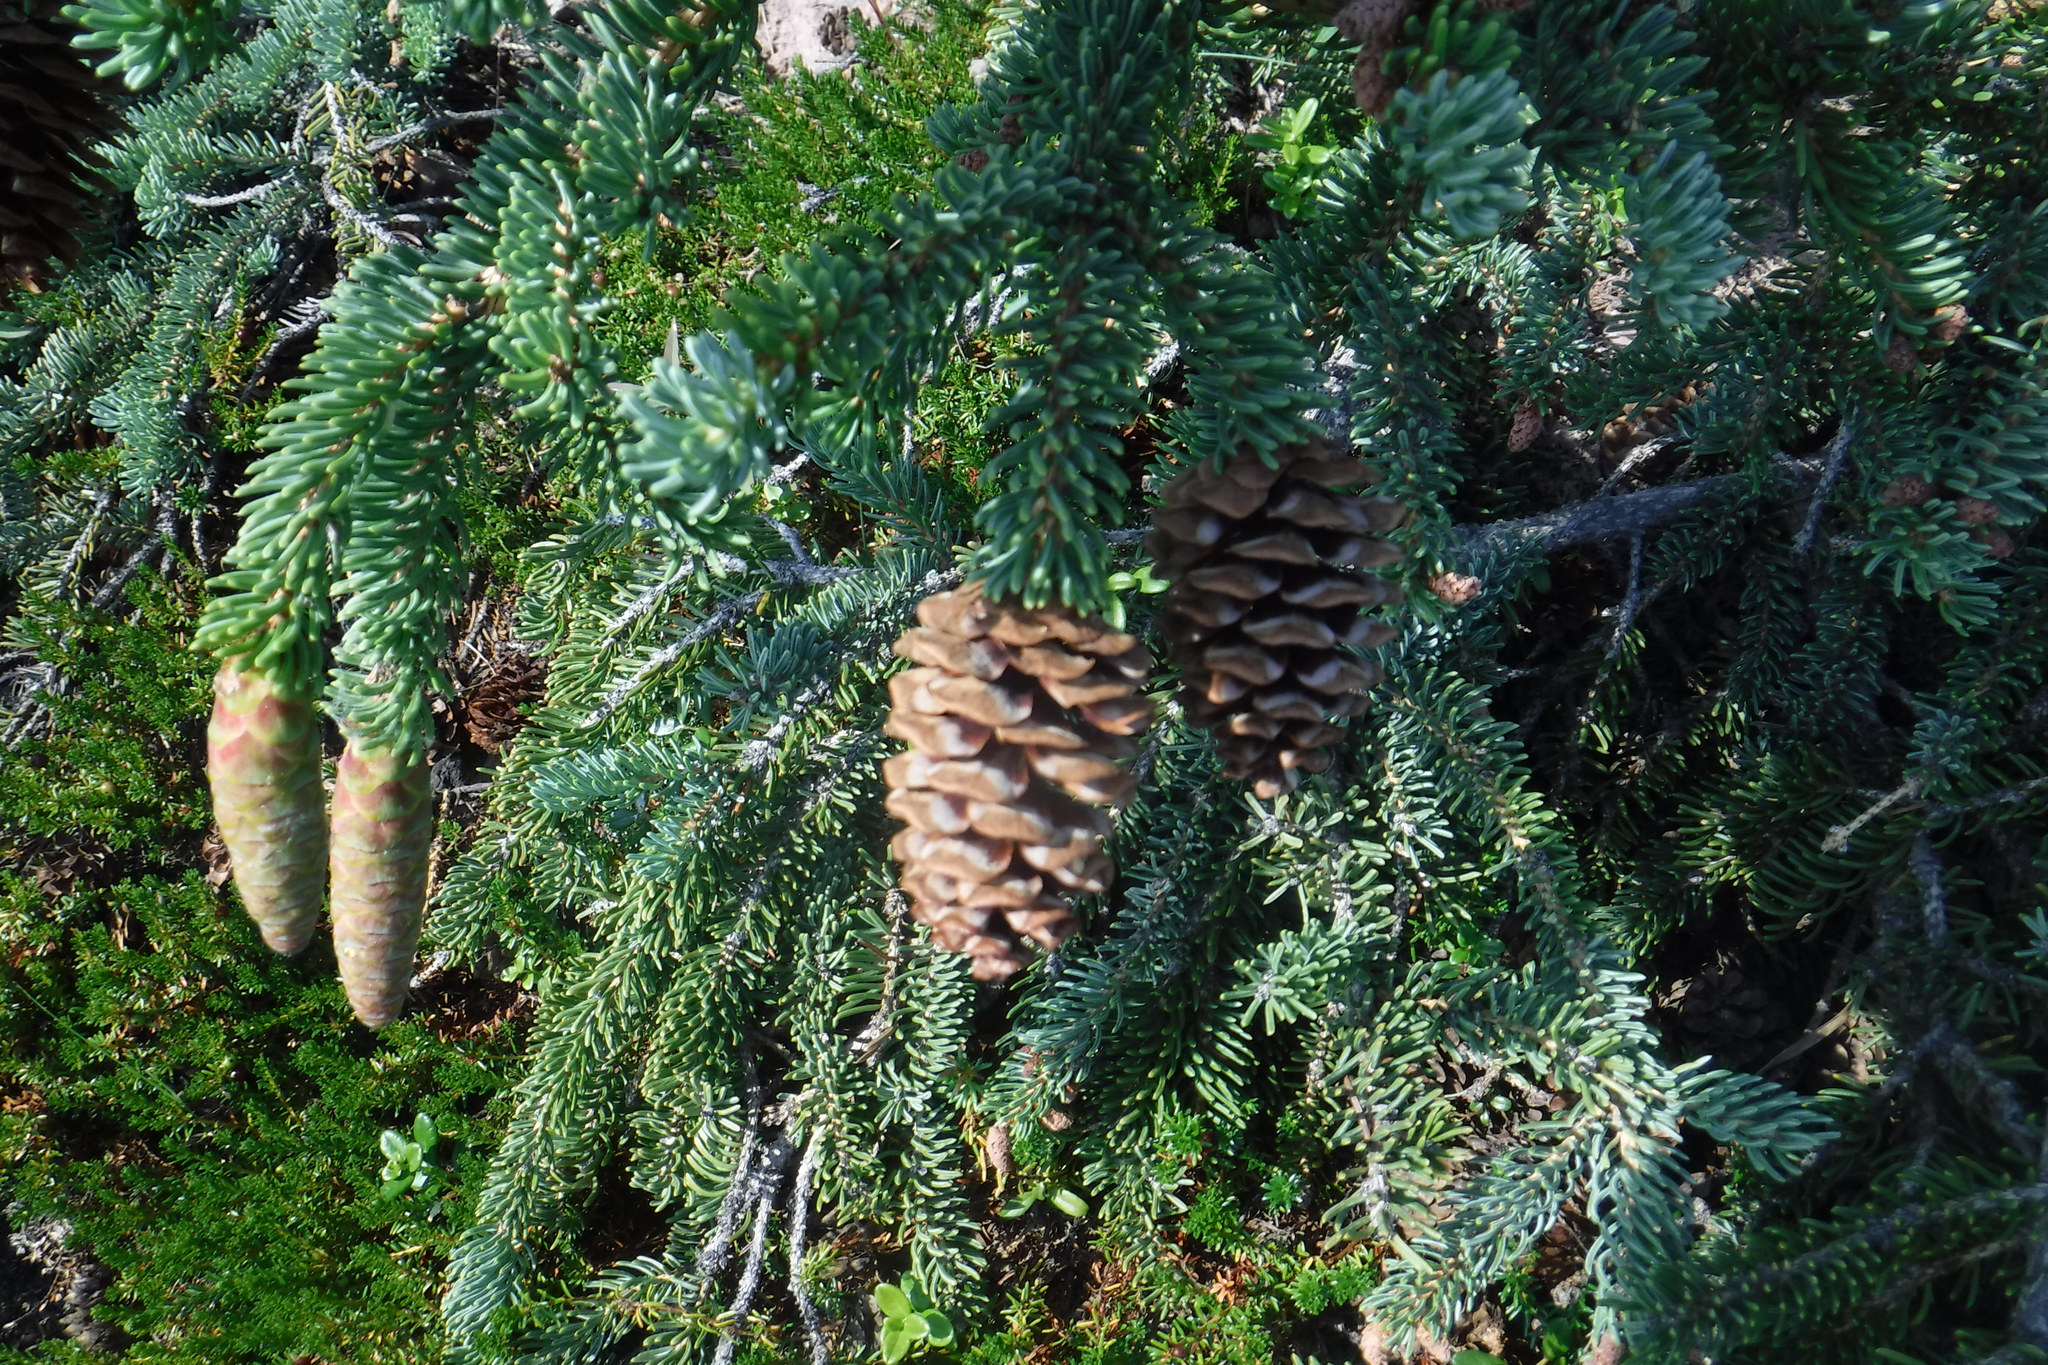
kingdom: Plantae
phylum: Tracheophyta
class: Pinopsida
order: Pinales
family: Pinaceae
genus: Picea
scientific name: Picea glauca
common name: White spruce
